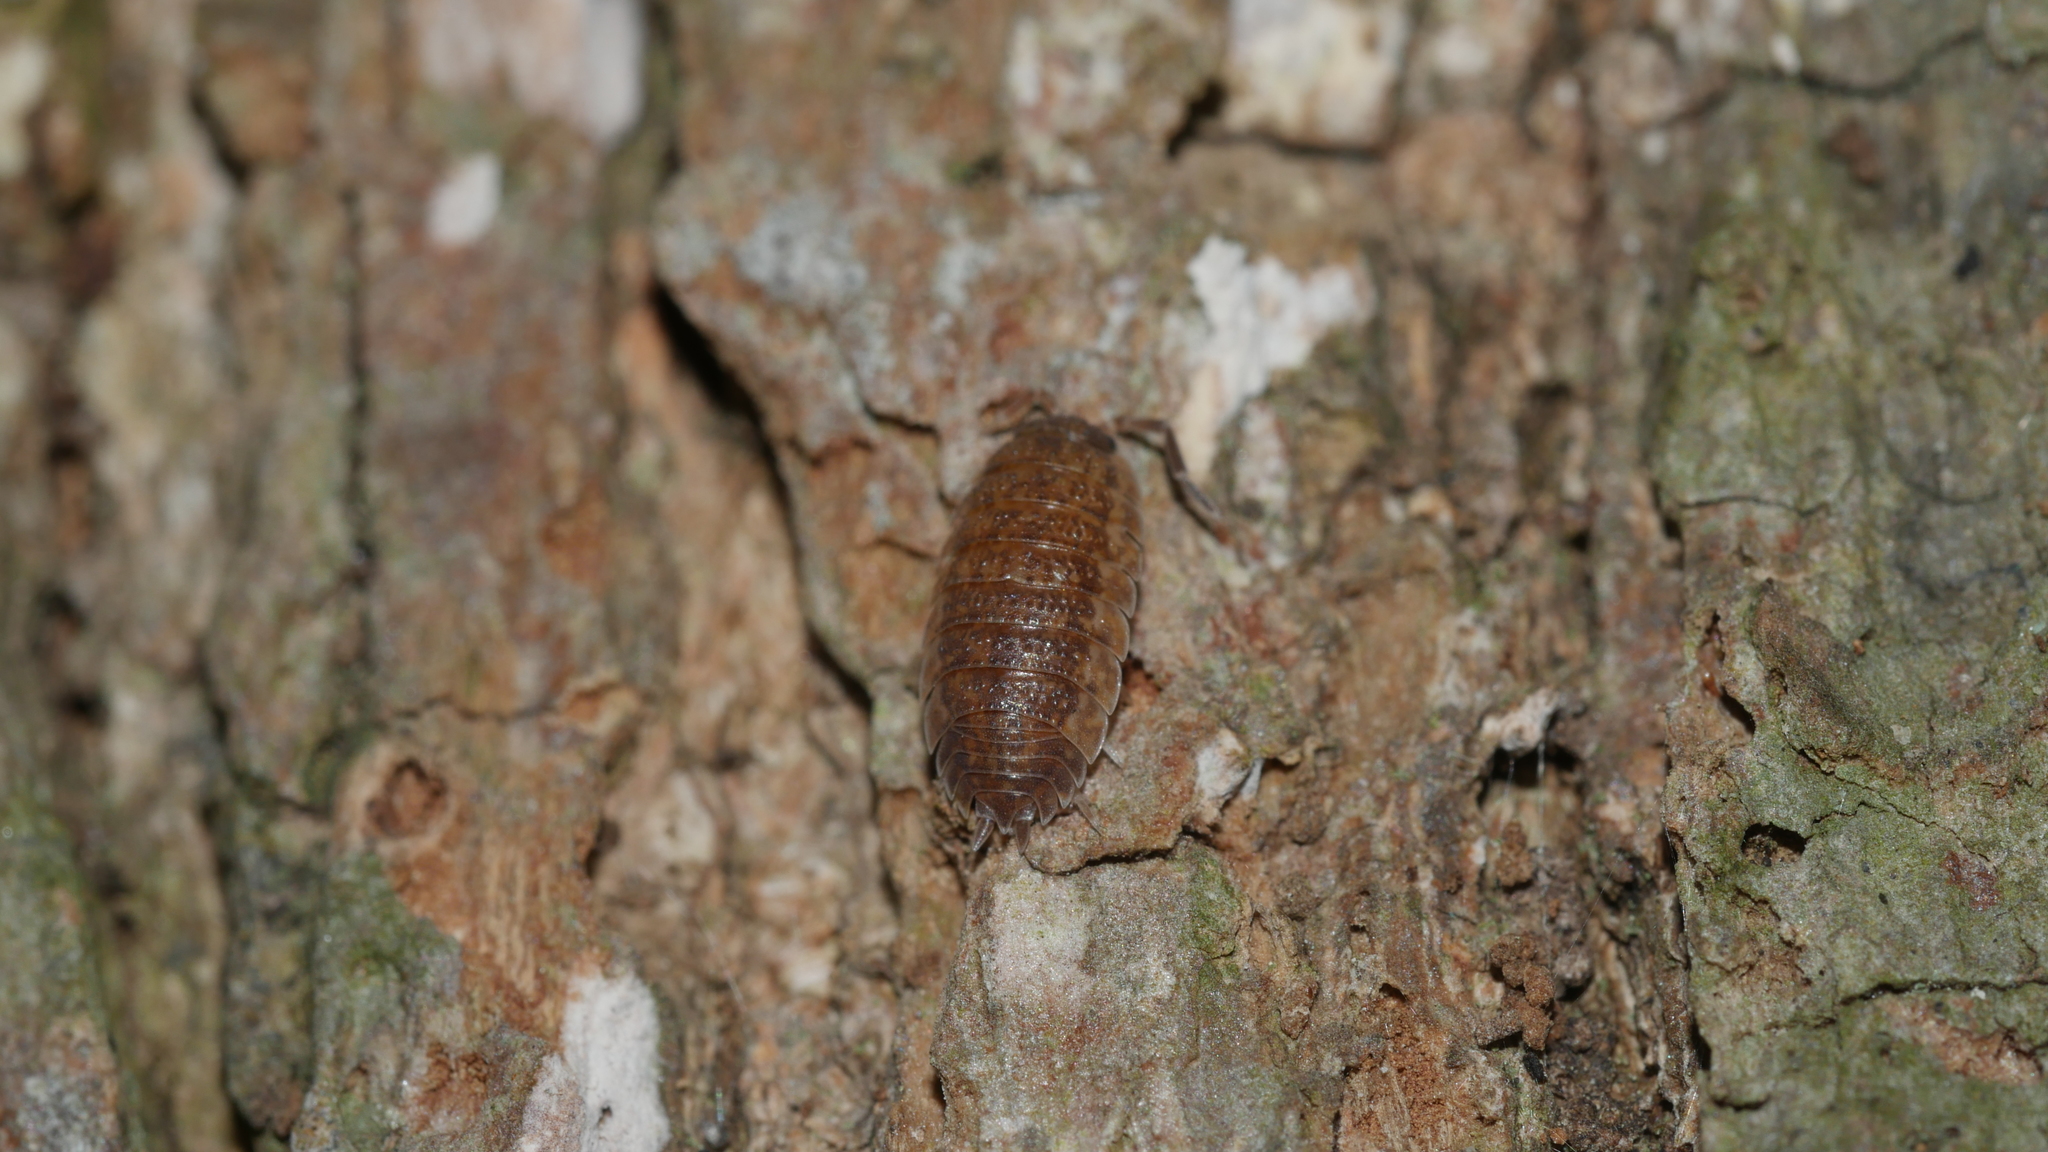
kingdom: Animalia
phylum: Arthropoda
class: Malacostraca
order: Isopoda
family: Porcellionidae
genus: Porcellio
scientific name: Porcellio scaber
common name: Common rough woodlouse
